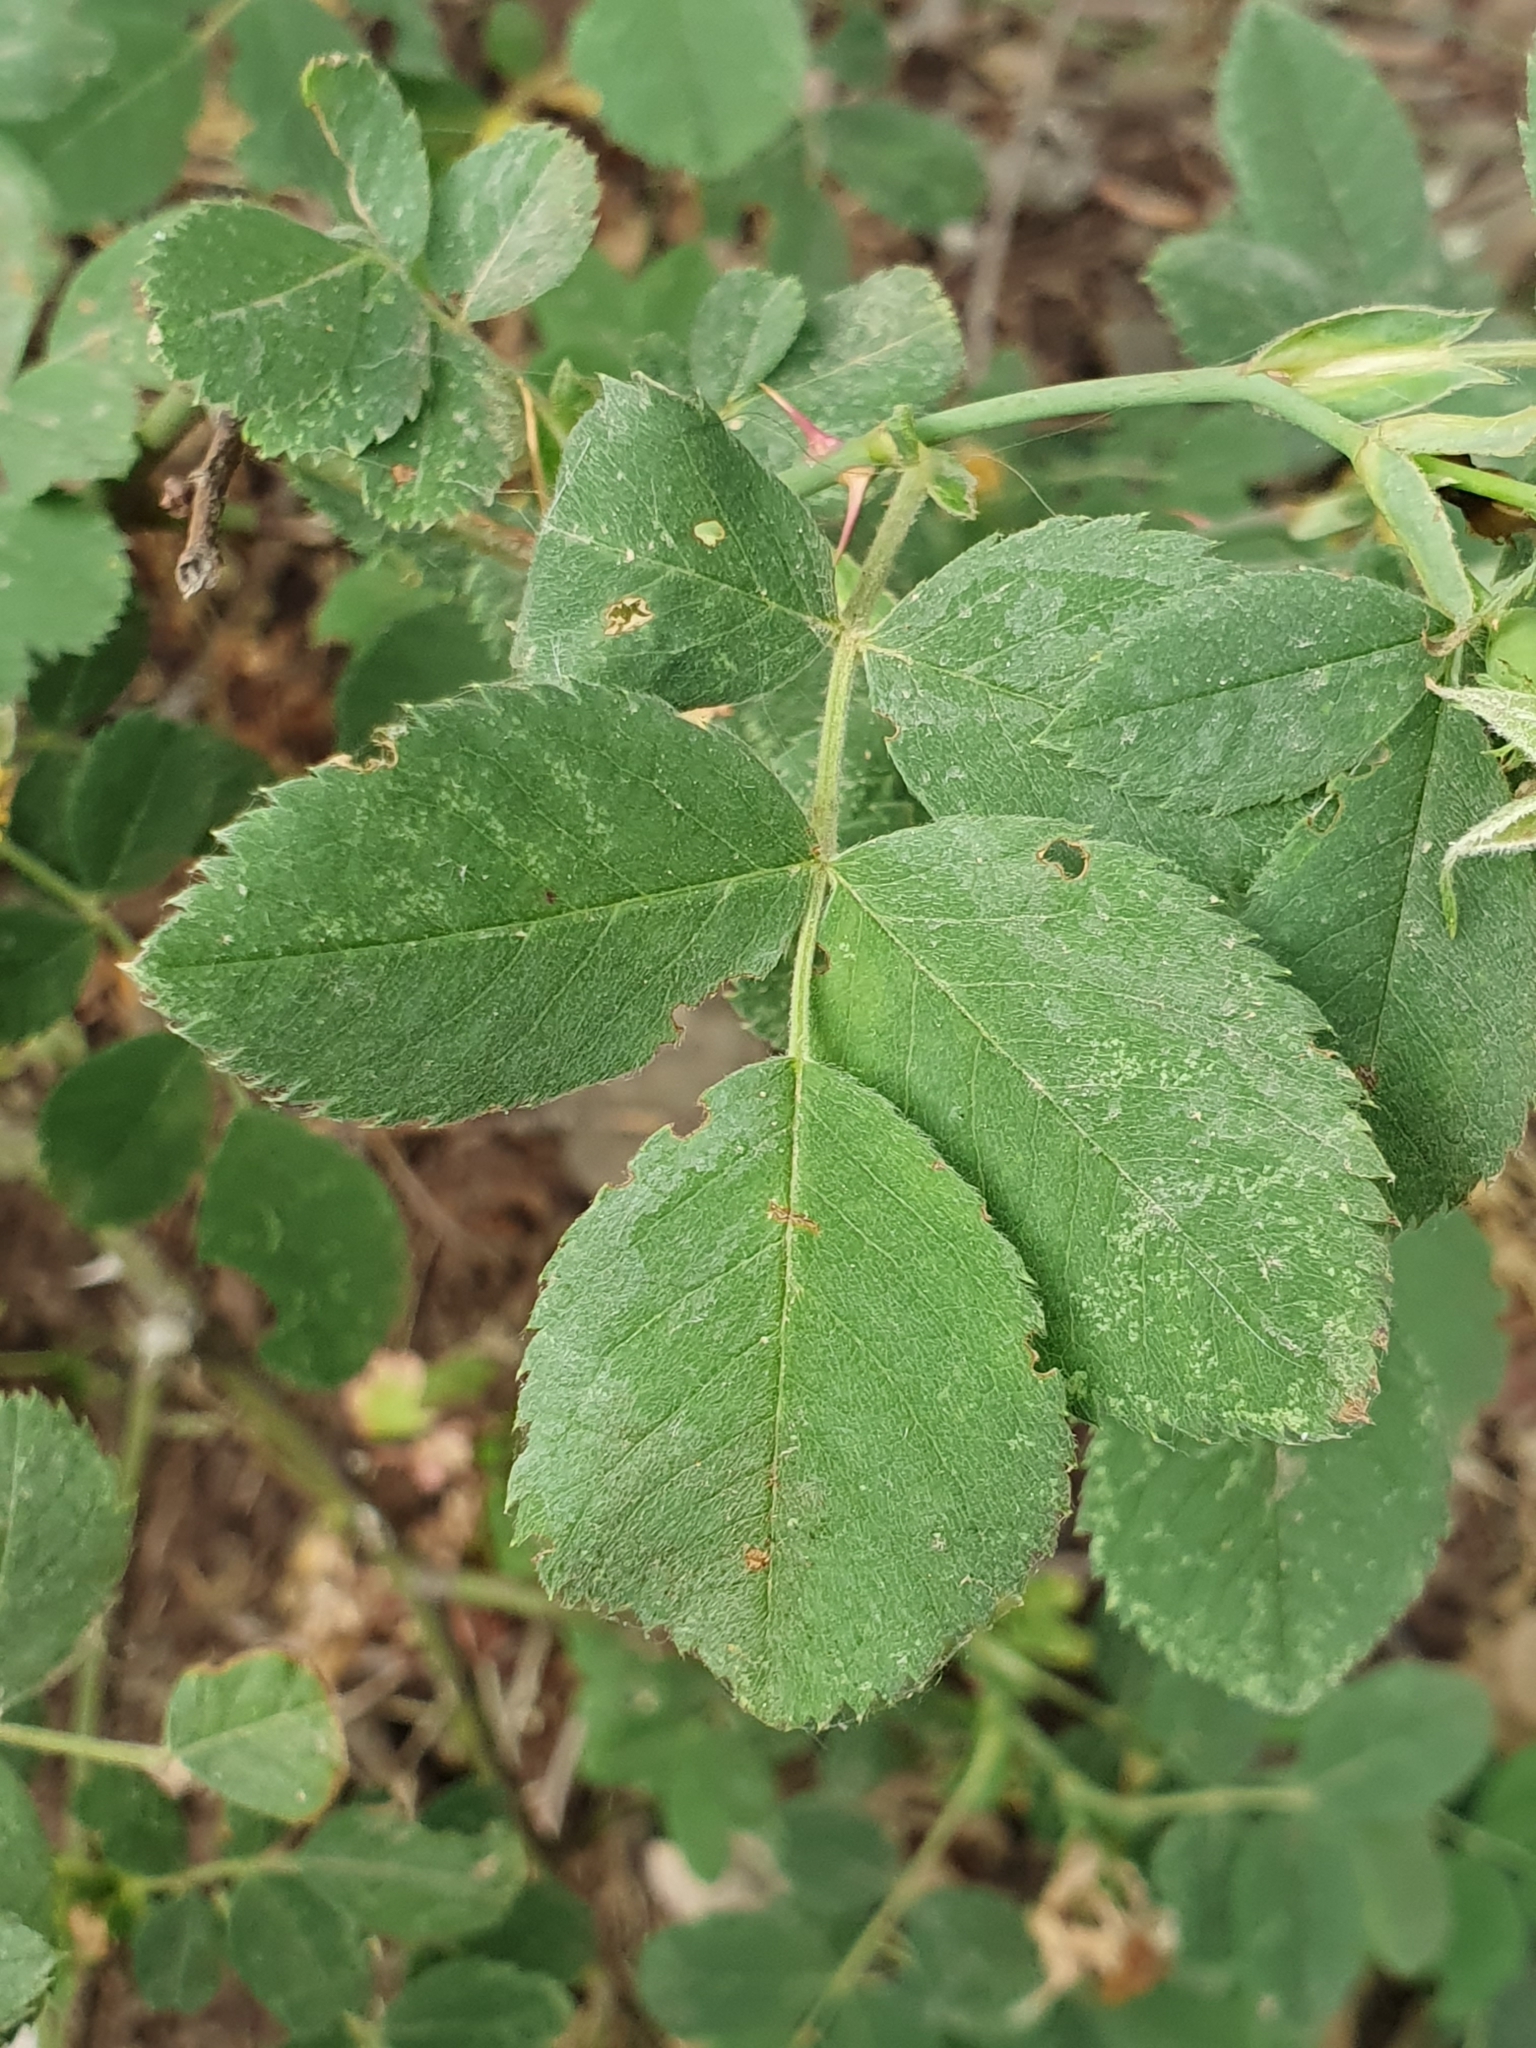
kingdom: Plantae
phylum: Tracheophyta
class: Magnoliopsida
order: Rosales
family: Rosaceae
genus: Rosa
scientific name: Rosa corymbifera
